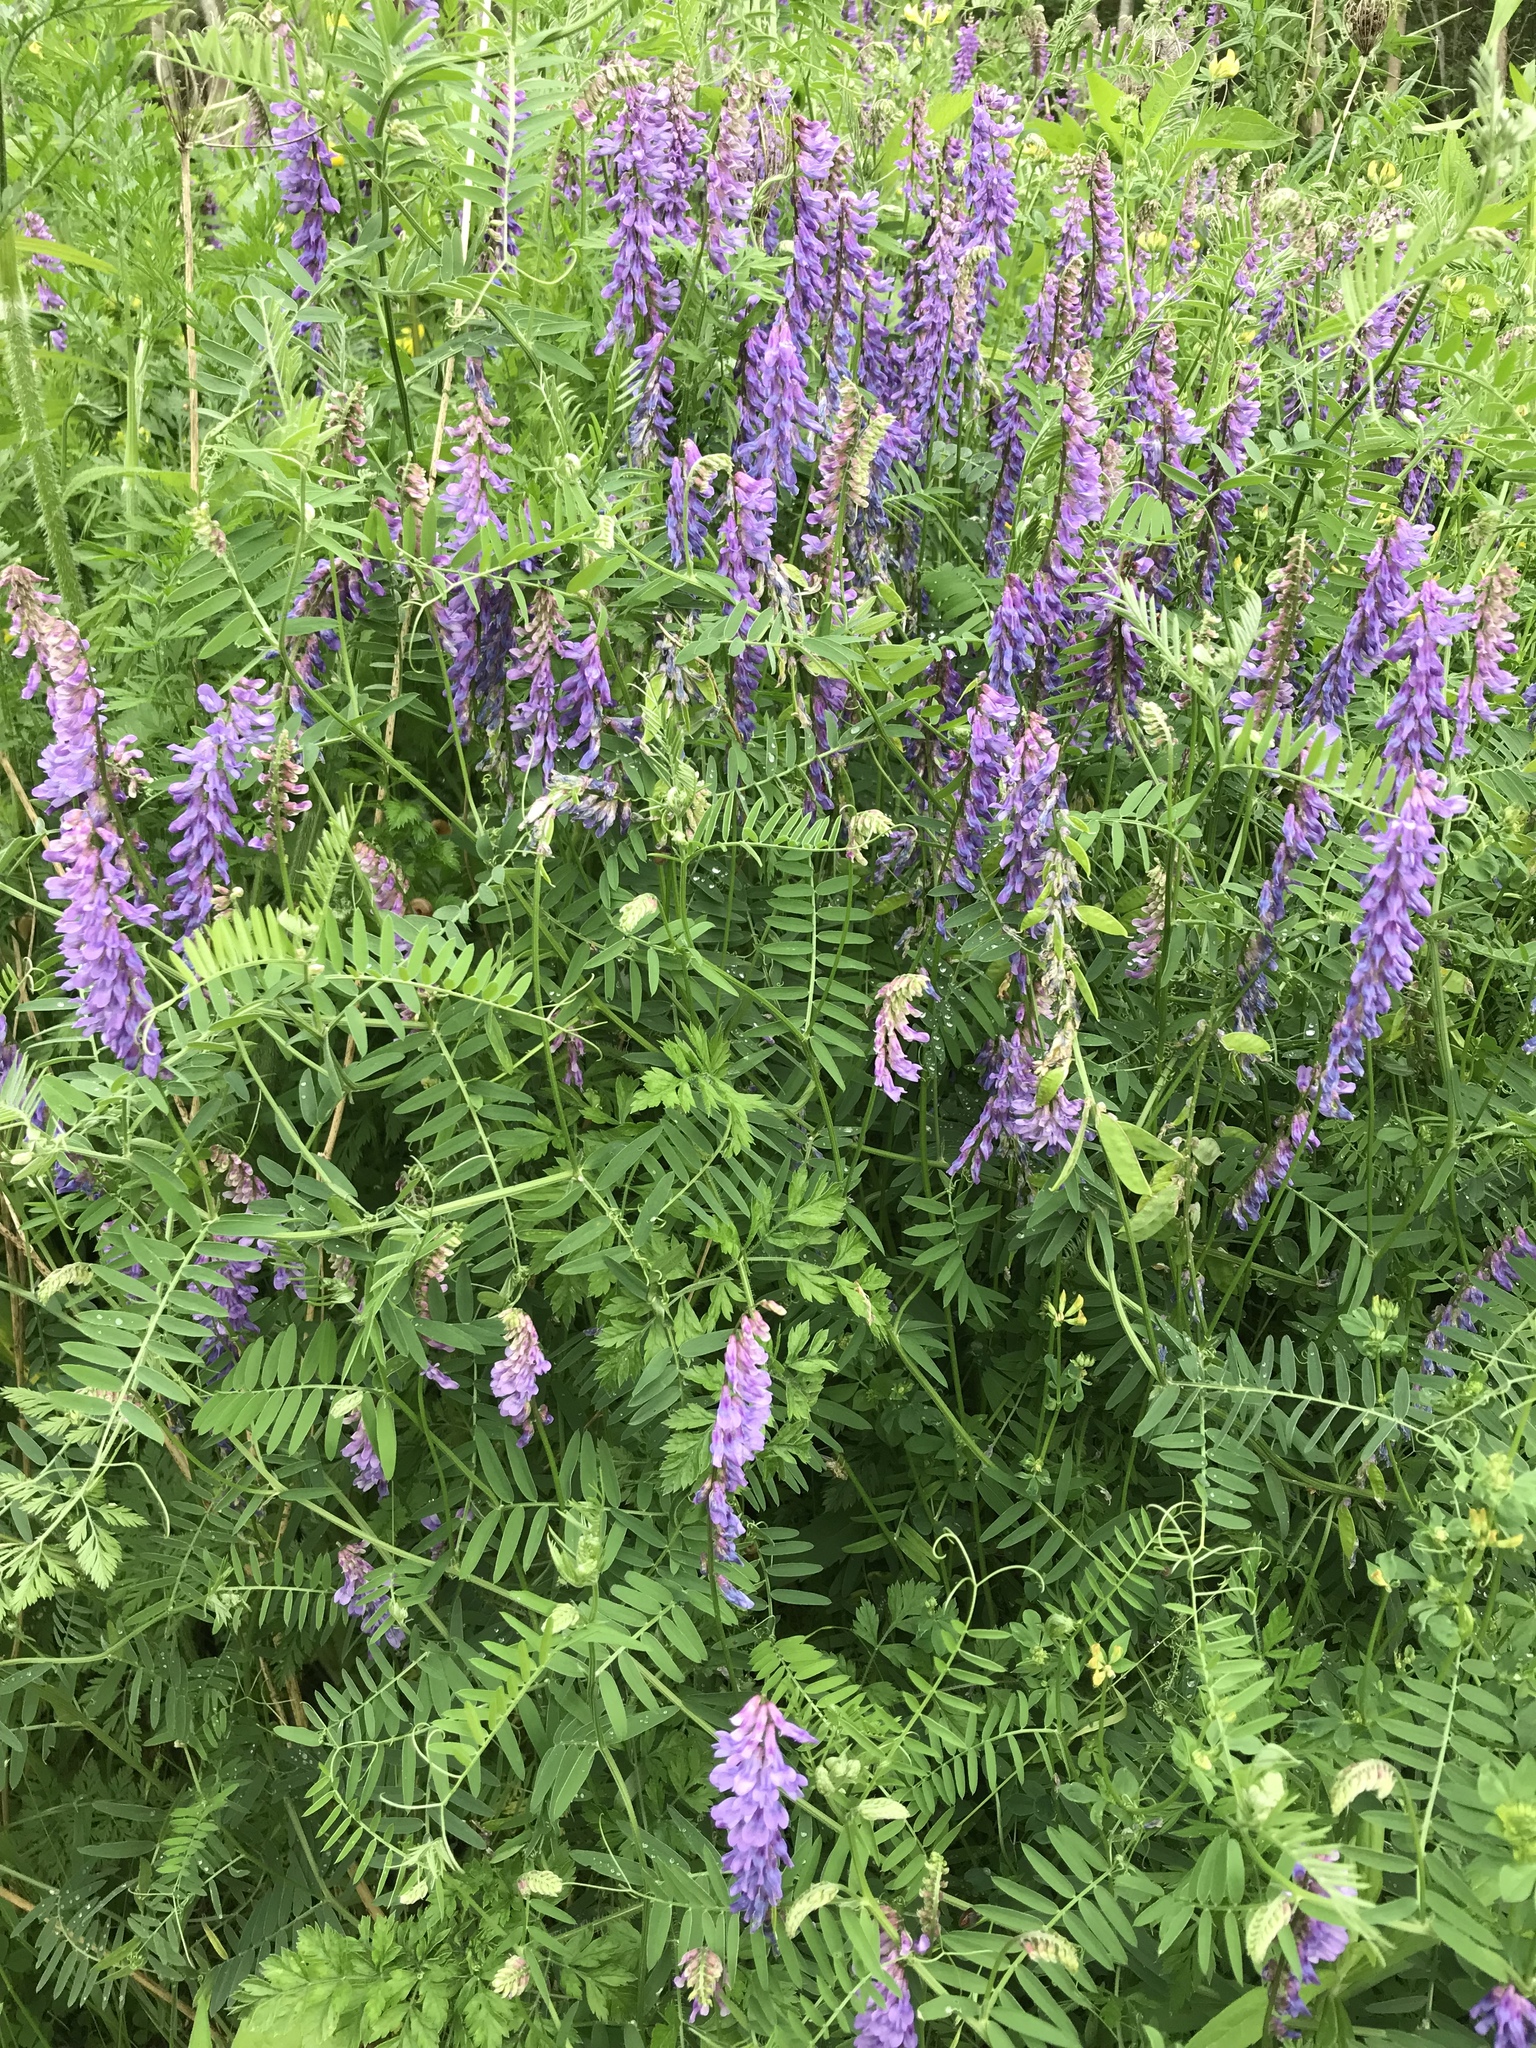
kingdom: Plantae
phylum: Tracheophyta
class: Magnoliopsida
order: Fabales
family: Fabaceae
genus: Vicia
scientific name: Vicia cracca
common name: Bird vetch
